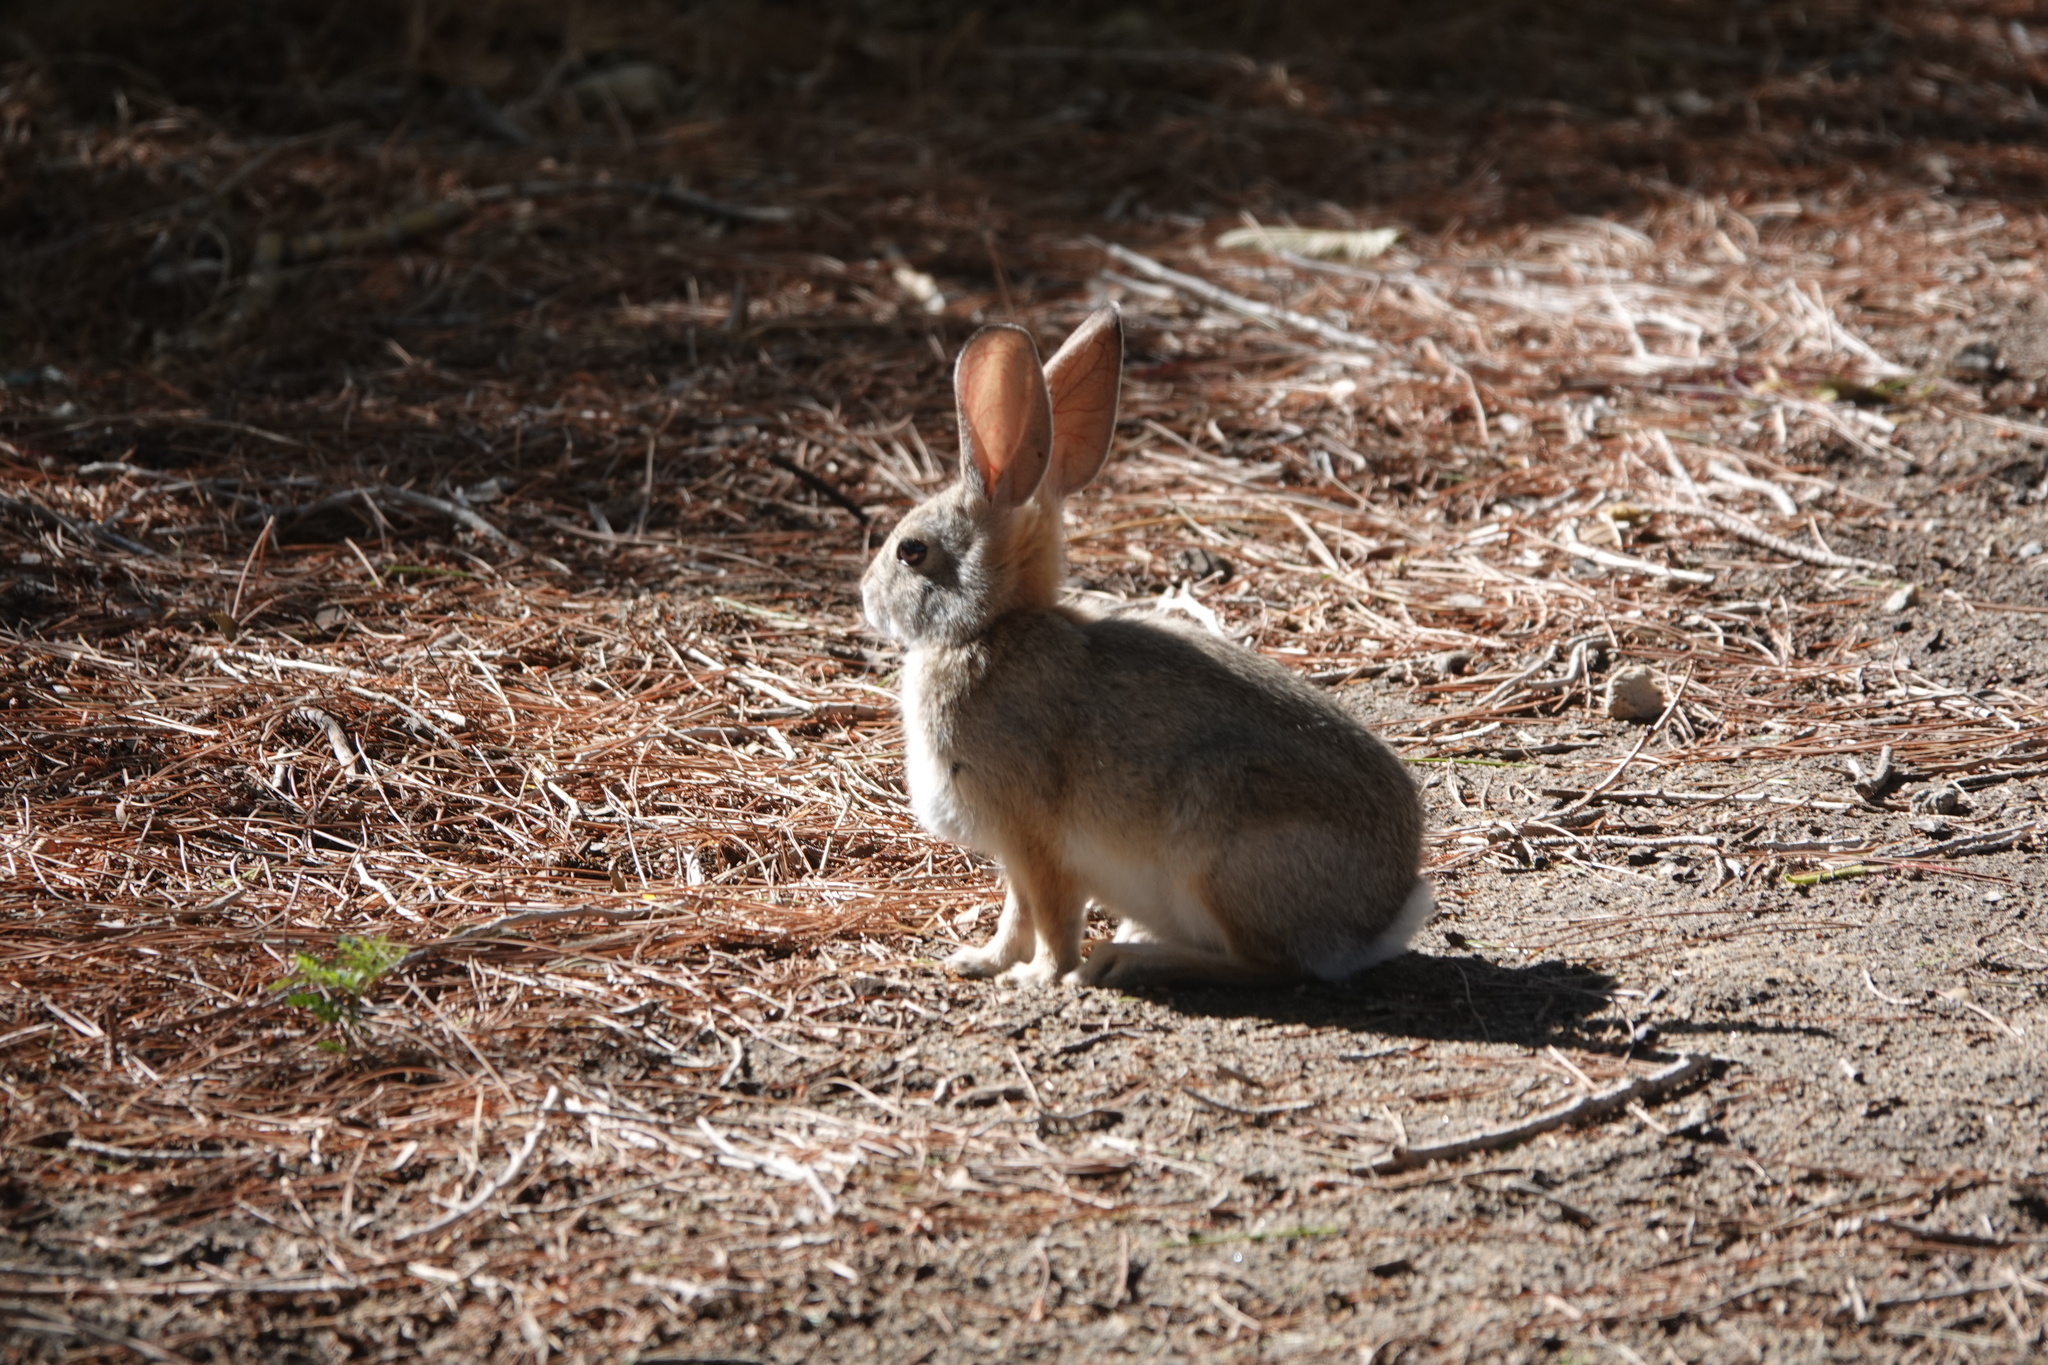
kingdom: Animalia
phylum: Chordata
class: Mammalia
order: Lagomorpha
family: Leporidae
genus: Sylvilagus
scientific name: Sylvilagus audubonii
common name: Desert cottontail
